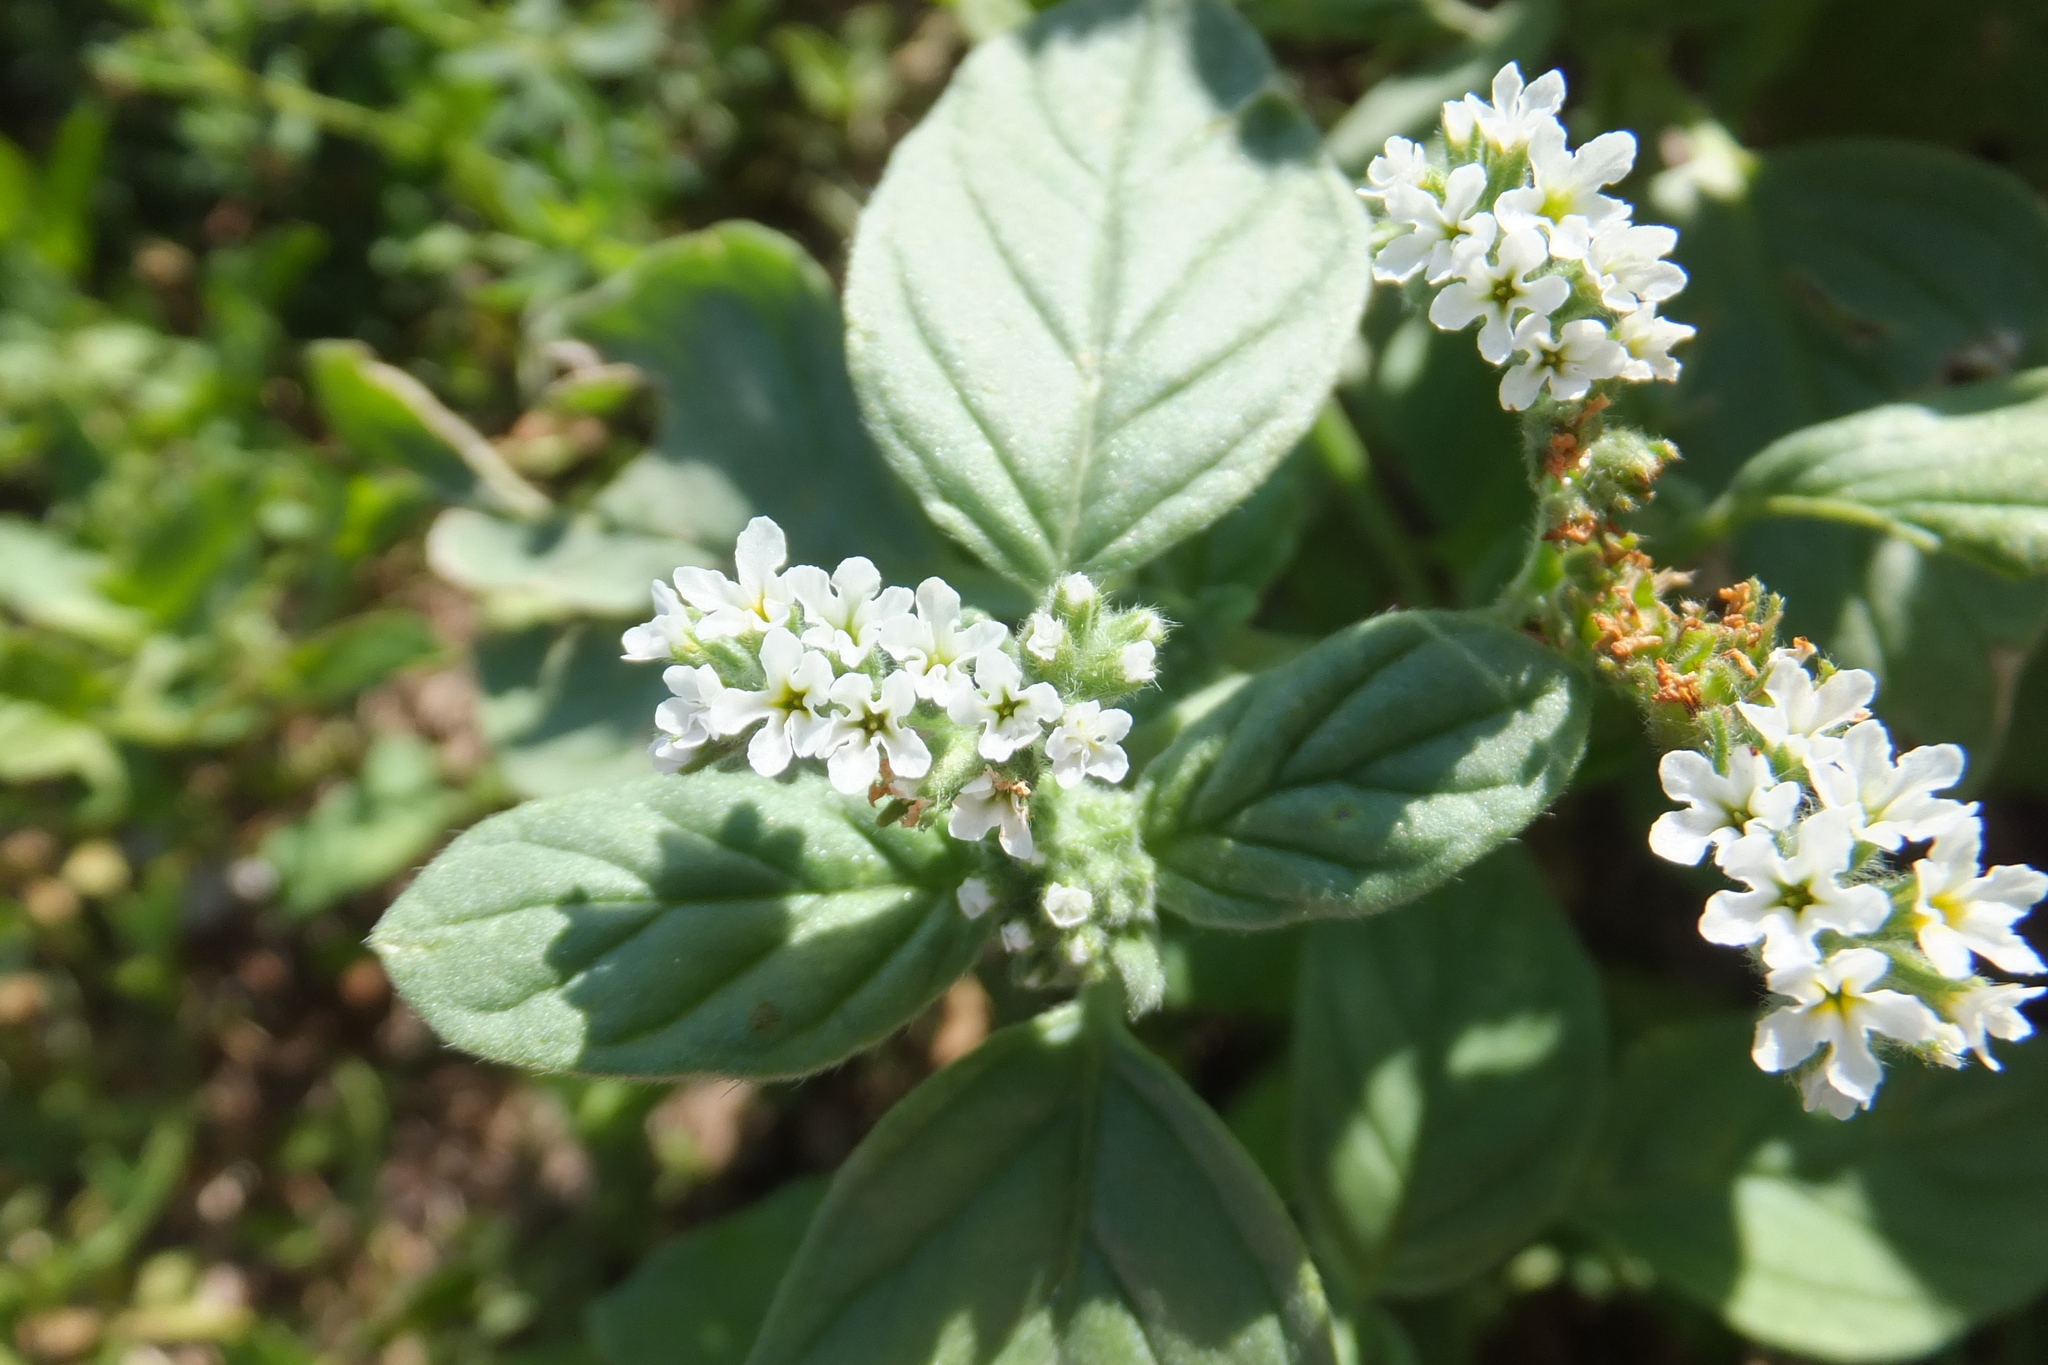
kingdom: Plantae
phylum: Tracheophyta
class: Magnoliopsida
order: Boraginales
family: Heliotropiaceae
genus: Heliotropium
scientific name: Heliotropium europaeum
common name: European heliotrope
